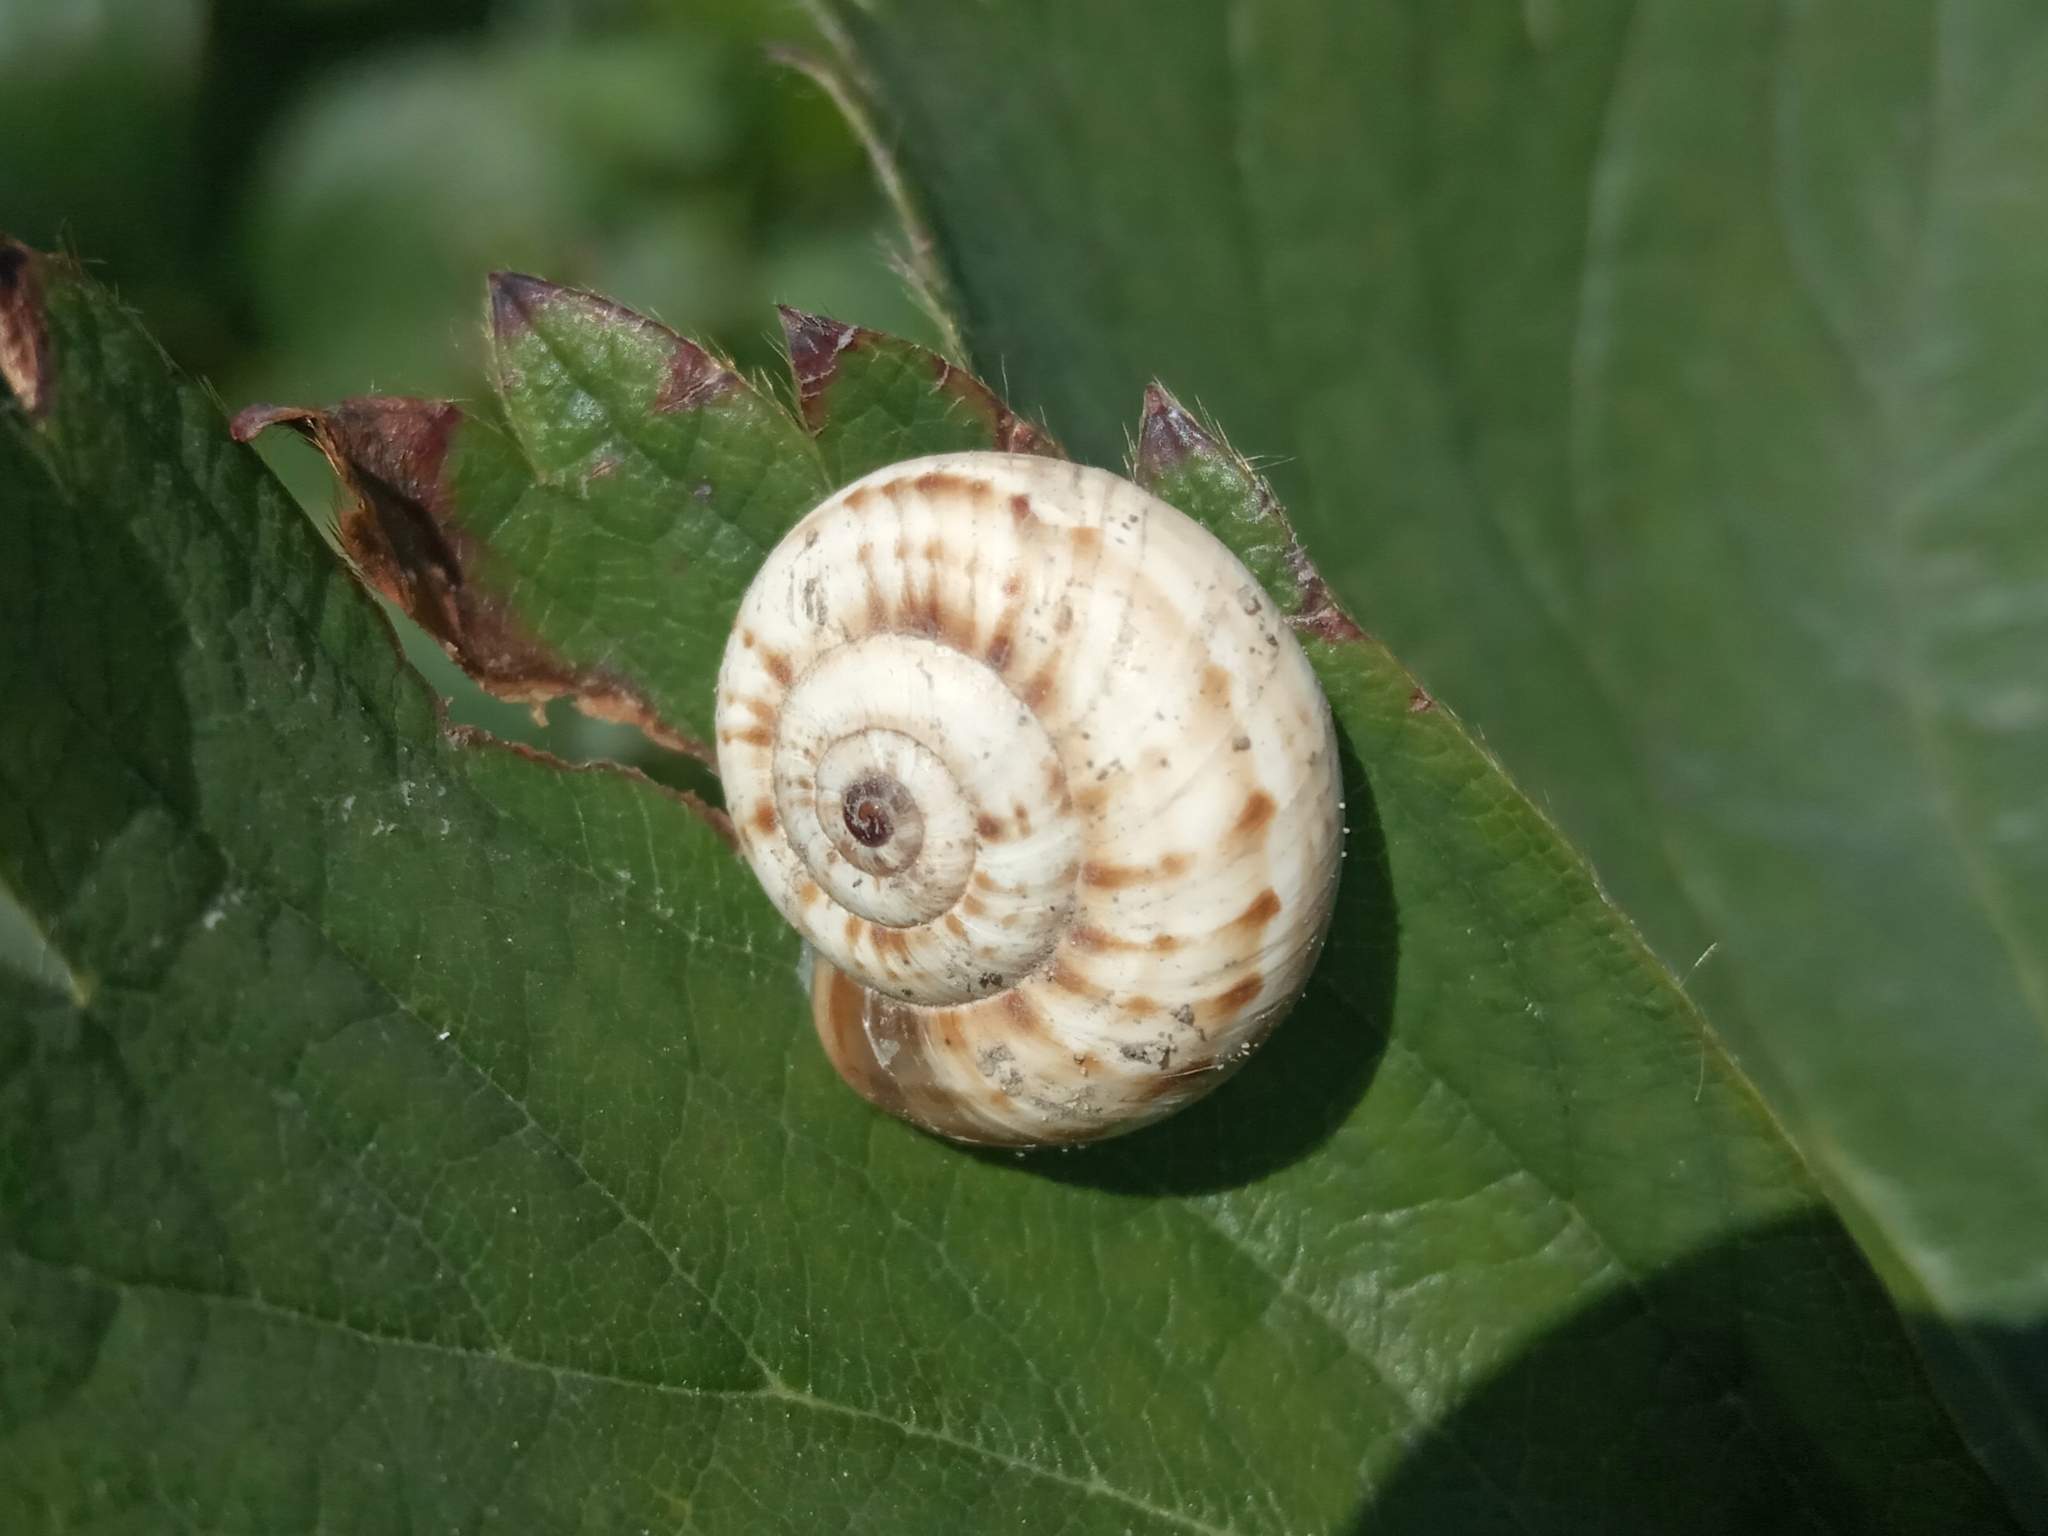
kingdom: Animalia
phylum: Mollusca
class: Gastropoda
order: Stylommatophora
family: Geomitridae
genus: Xeropicta
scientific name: Xeropicta derbentina
